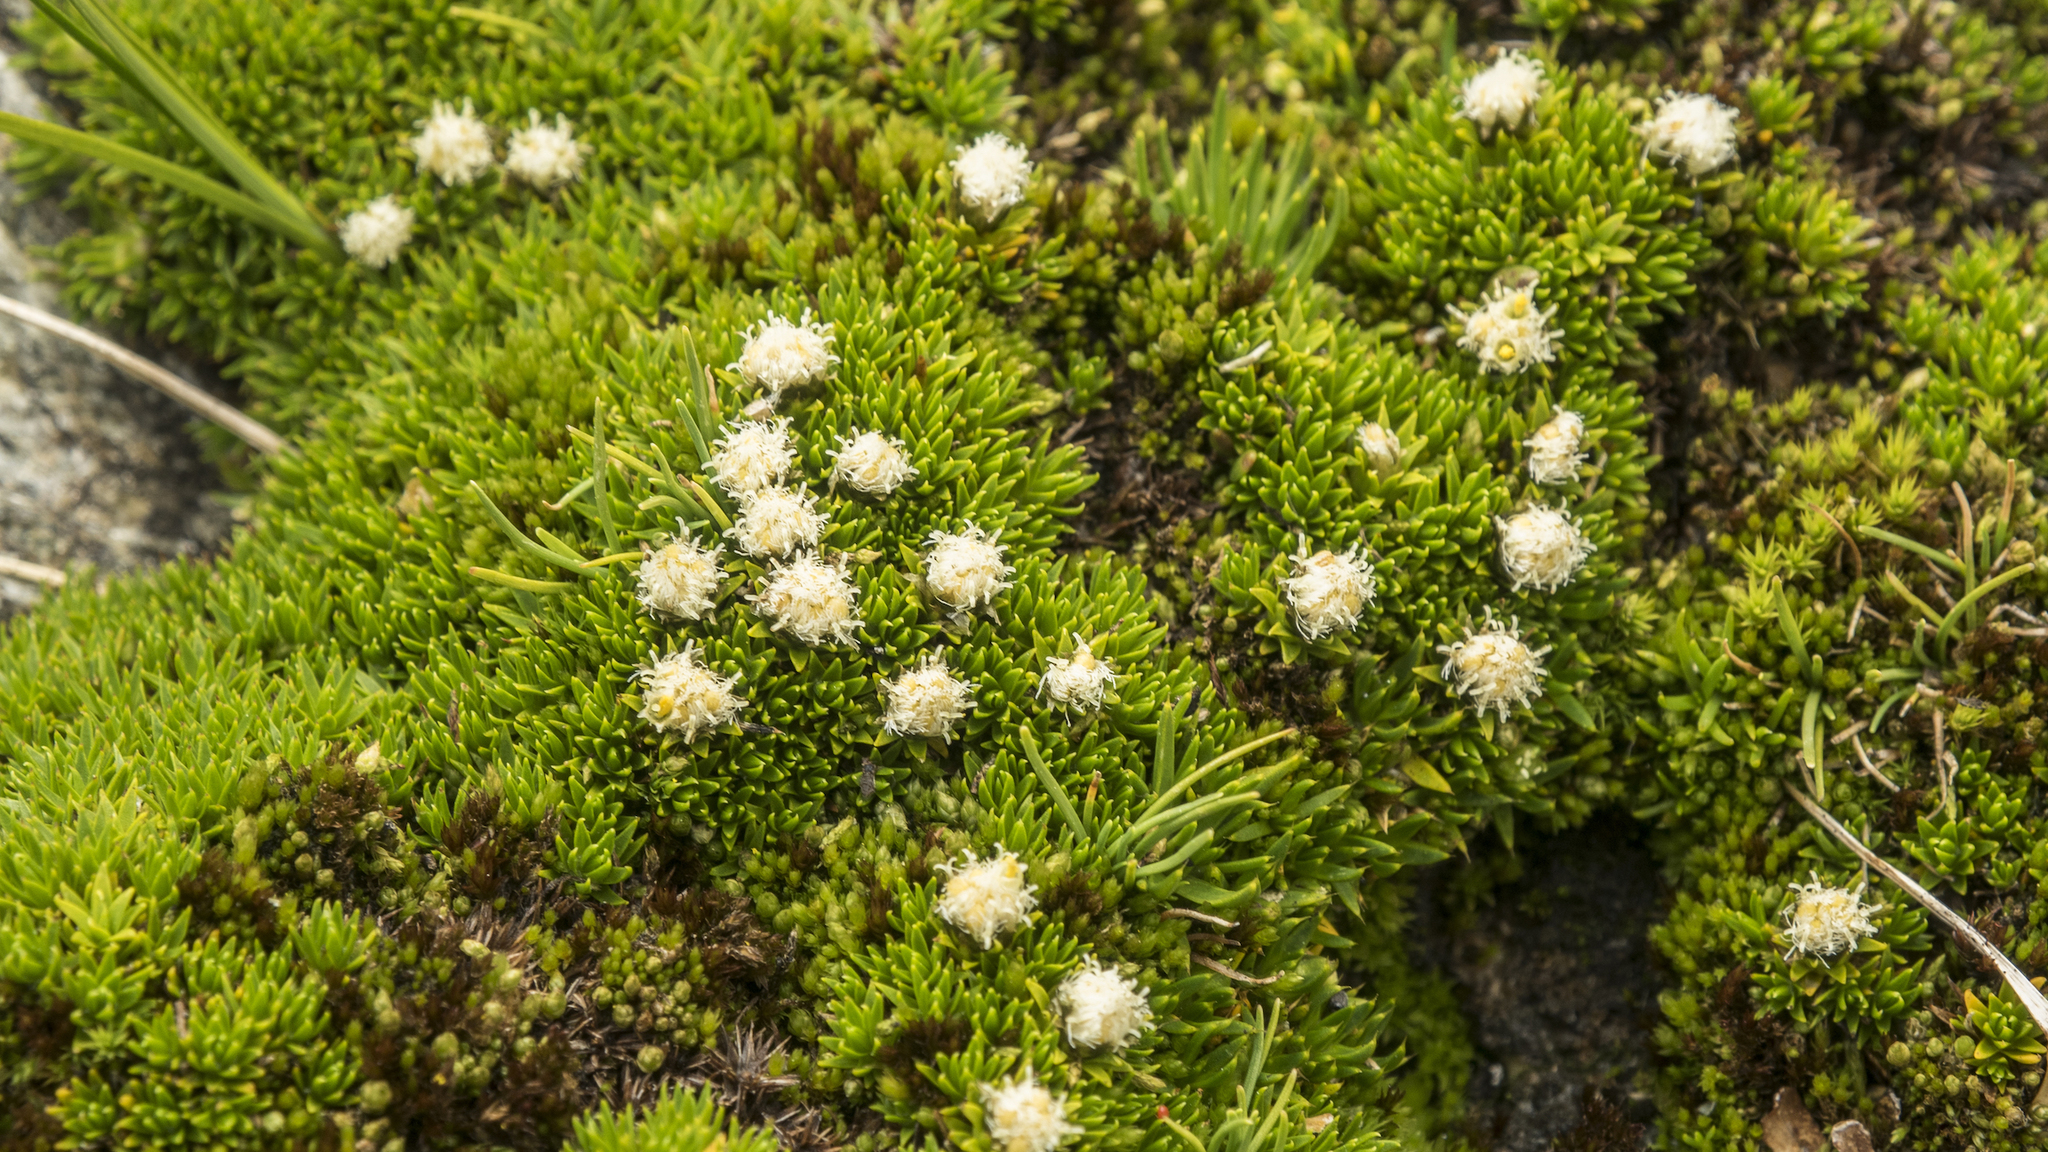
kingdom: Plantae
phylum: Tracheophyta
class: Magnoliopsida
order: Asterales
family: Asteraceae
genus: Raoulia
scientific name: Raoulia subulata
